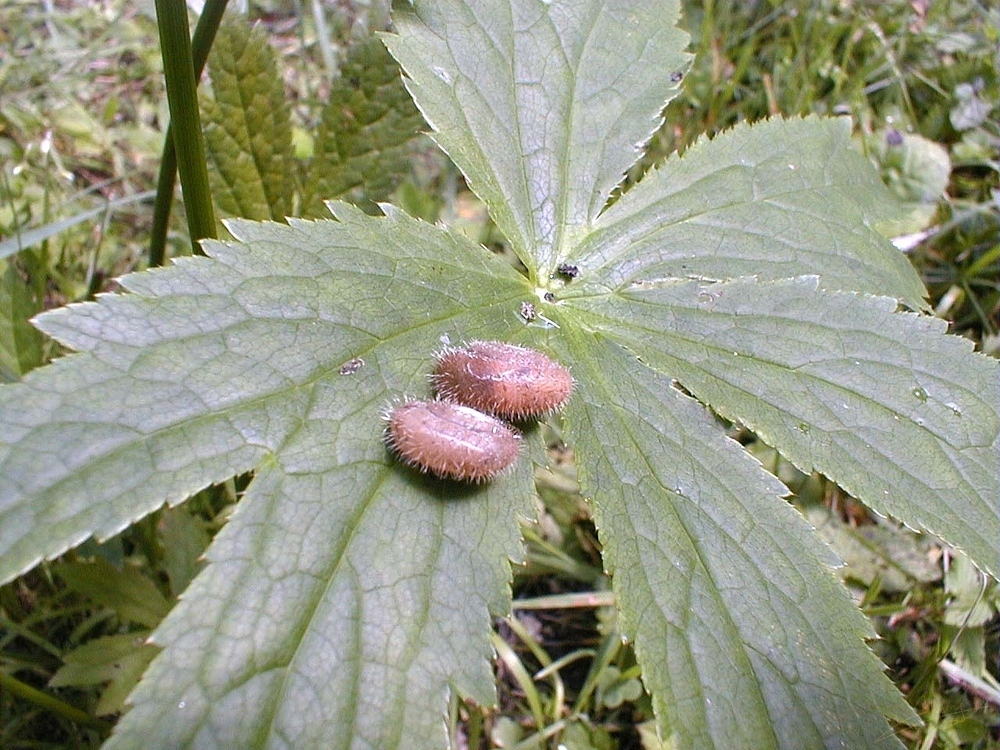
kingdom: Animalia
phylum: Mollusca
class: Gastropoda
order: Stylommatophora
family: Hygromiidae
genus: Trochulus
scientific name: Trochulus villosus
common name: Villous hairysnail
